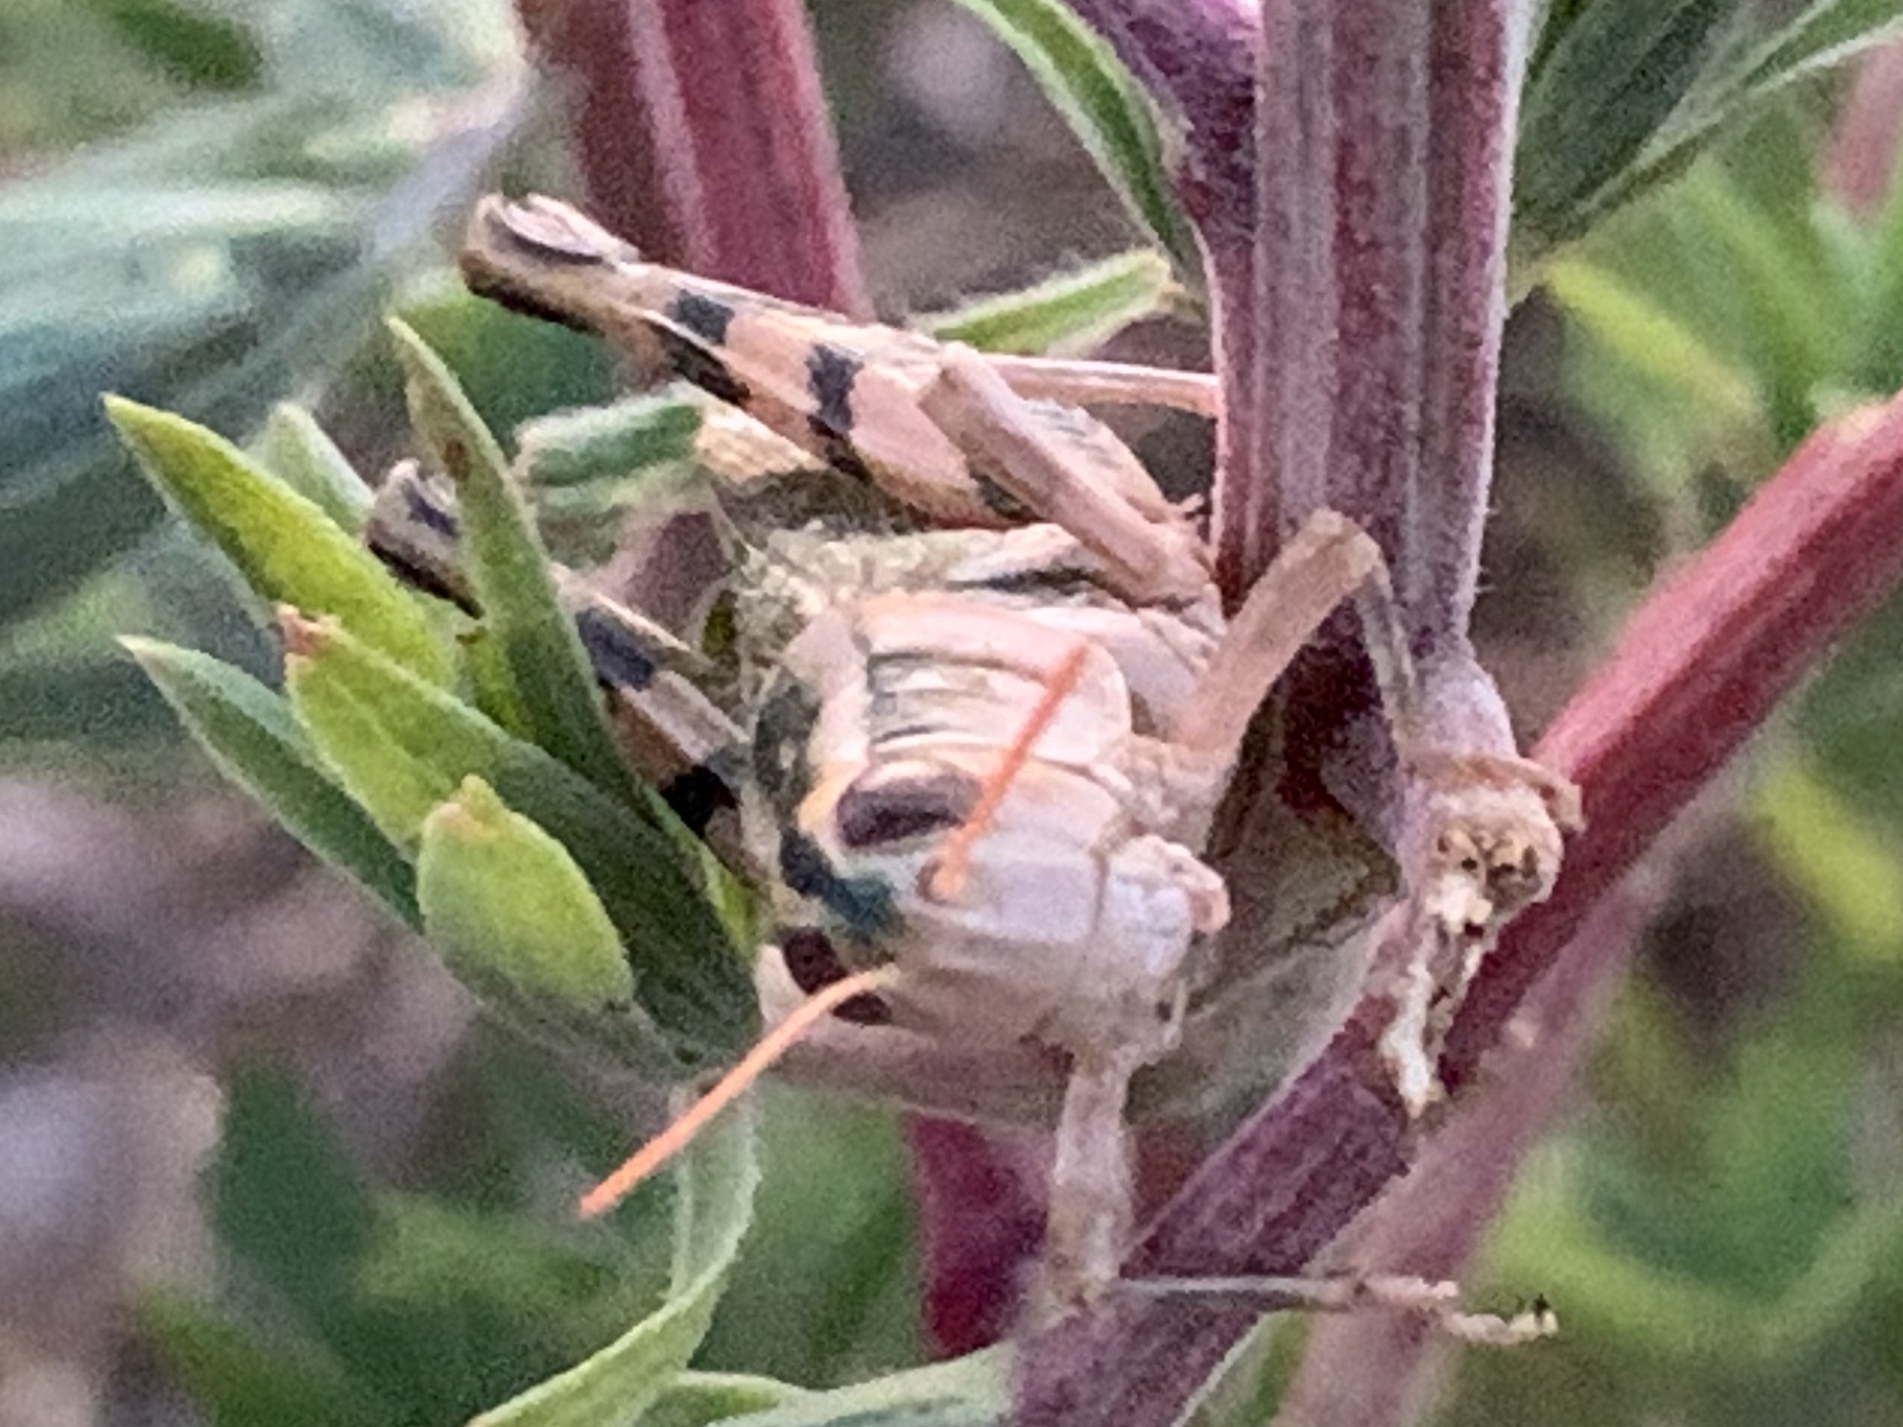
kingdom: Animalia
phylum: Arthropoda
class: Insecta
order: Orthoptera
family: Acrididae
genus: Aeoloplides
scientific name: Aeoloplides turnbulli
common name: Russianthistle grasshopper
